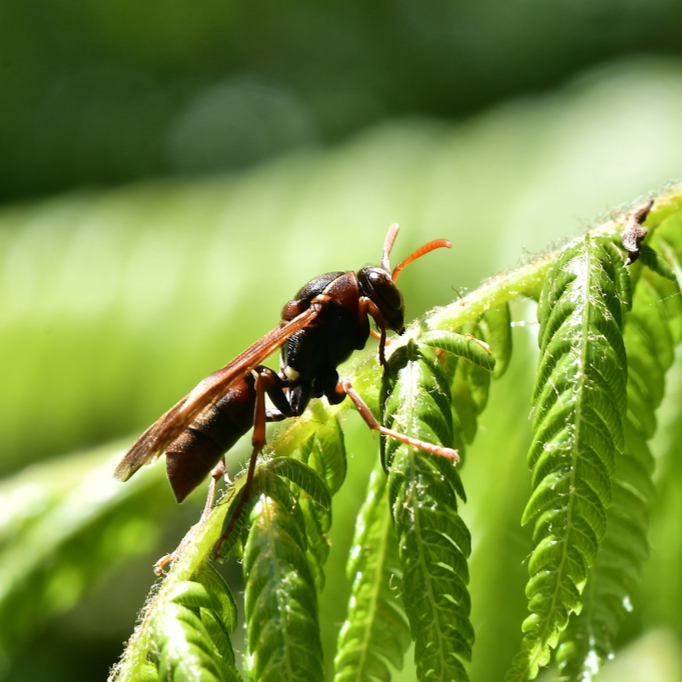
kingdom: Animalia
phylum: Arthropoda
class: Insecta
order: Hymenoptera
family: Eumenidae
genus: Polistes
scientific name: Polistes humilis
